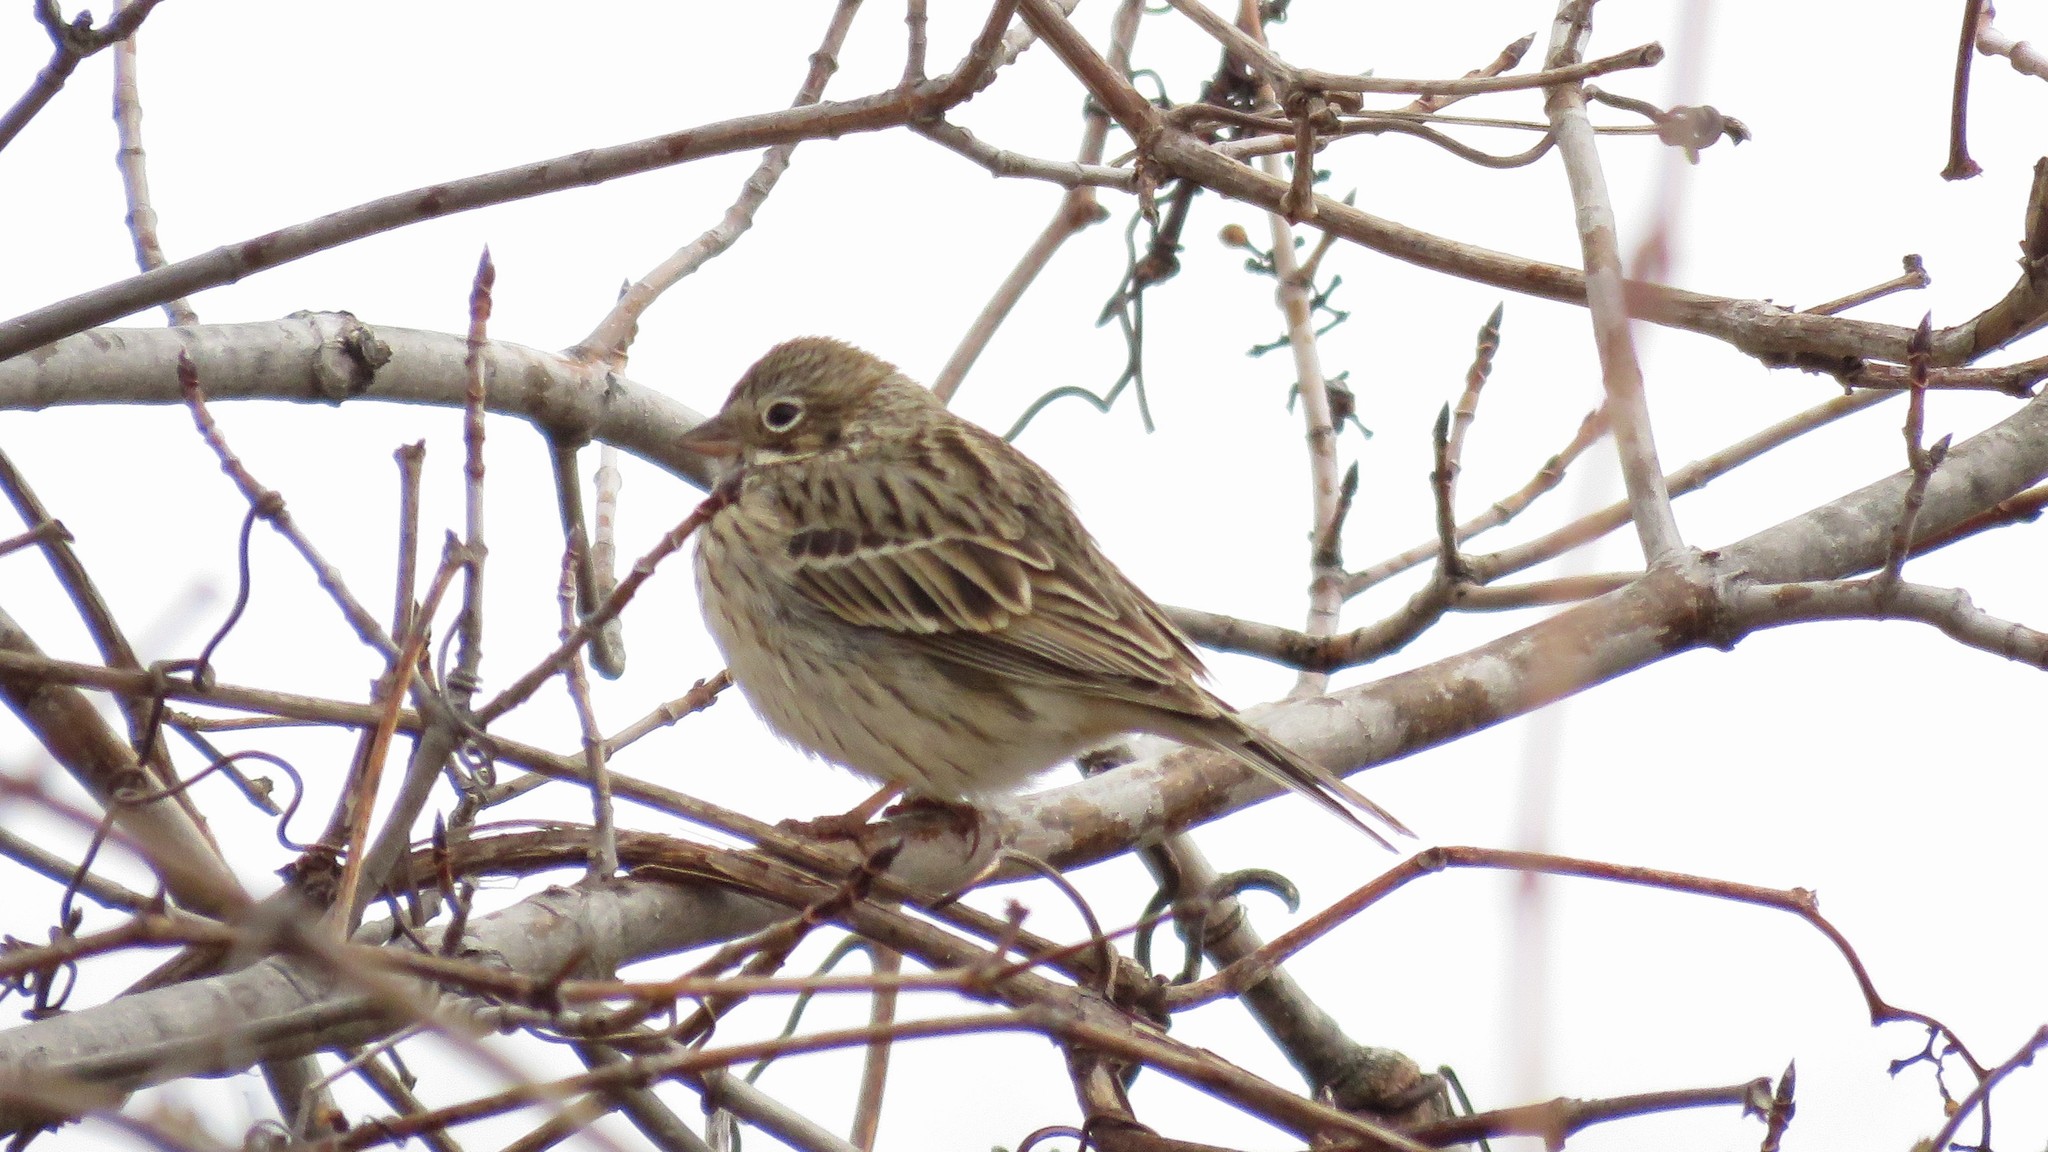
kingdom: Animalia
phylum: Chordata
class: Aves
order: Passeriformes
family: Passerellidae
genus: Pooecetes
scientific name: Pooecetes gramineus
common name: Vesper sparrow
